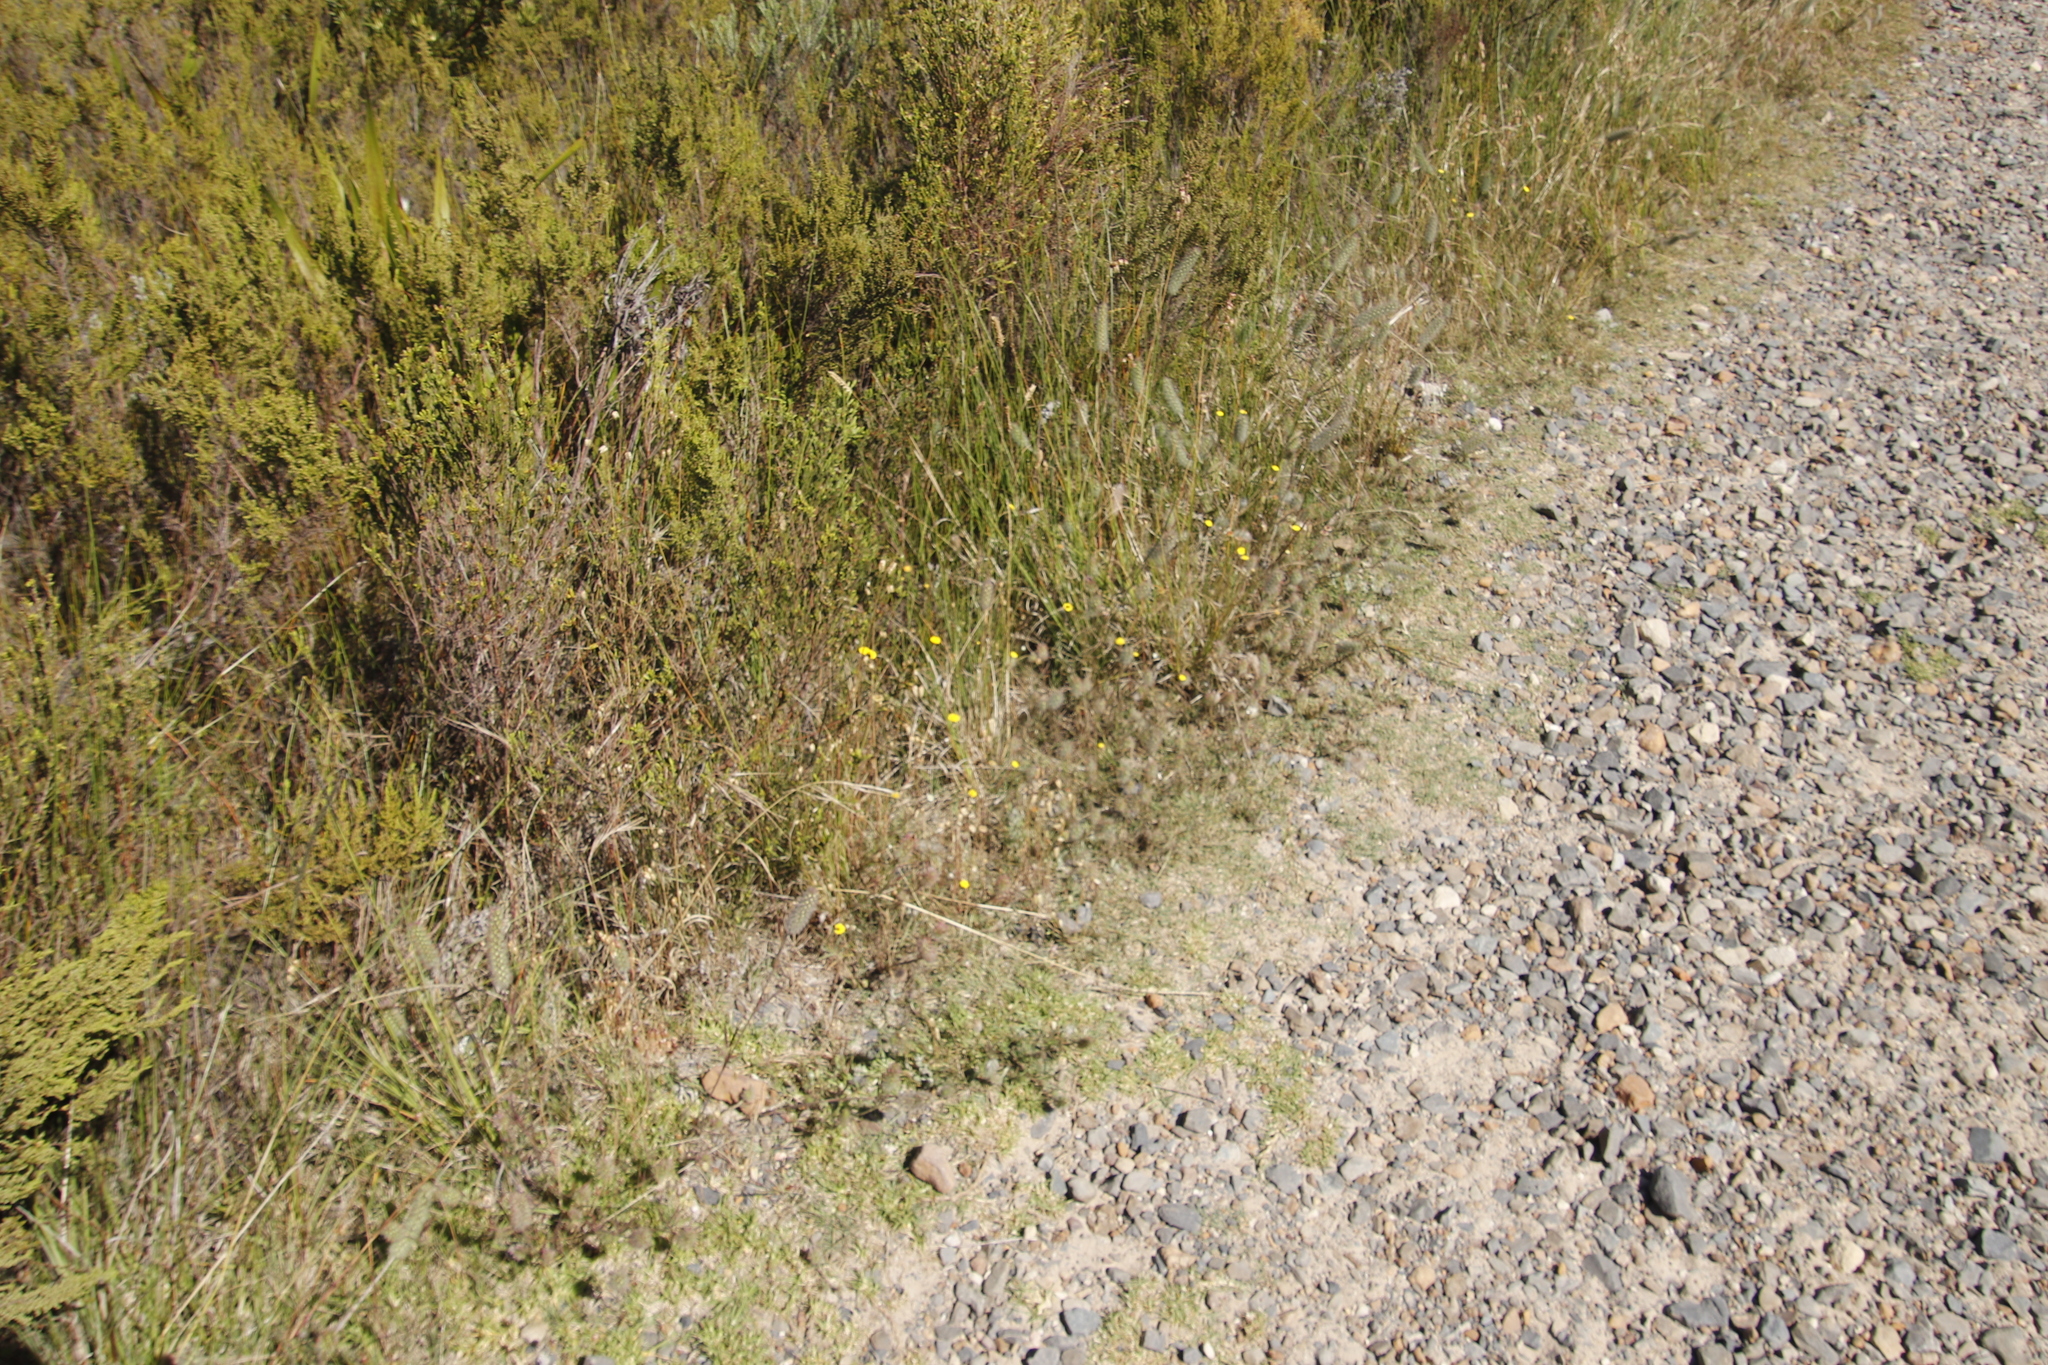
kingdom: Plantae
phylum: Tracheophyta
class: Magnoliopsida
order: Asterales
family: Asteraceae
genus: Cotula
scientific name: Cotula pruinosa
